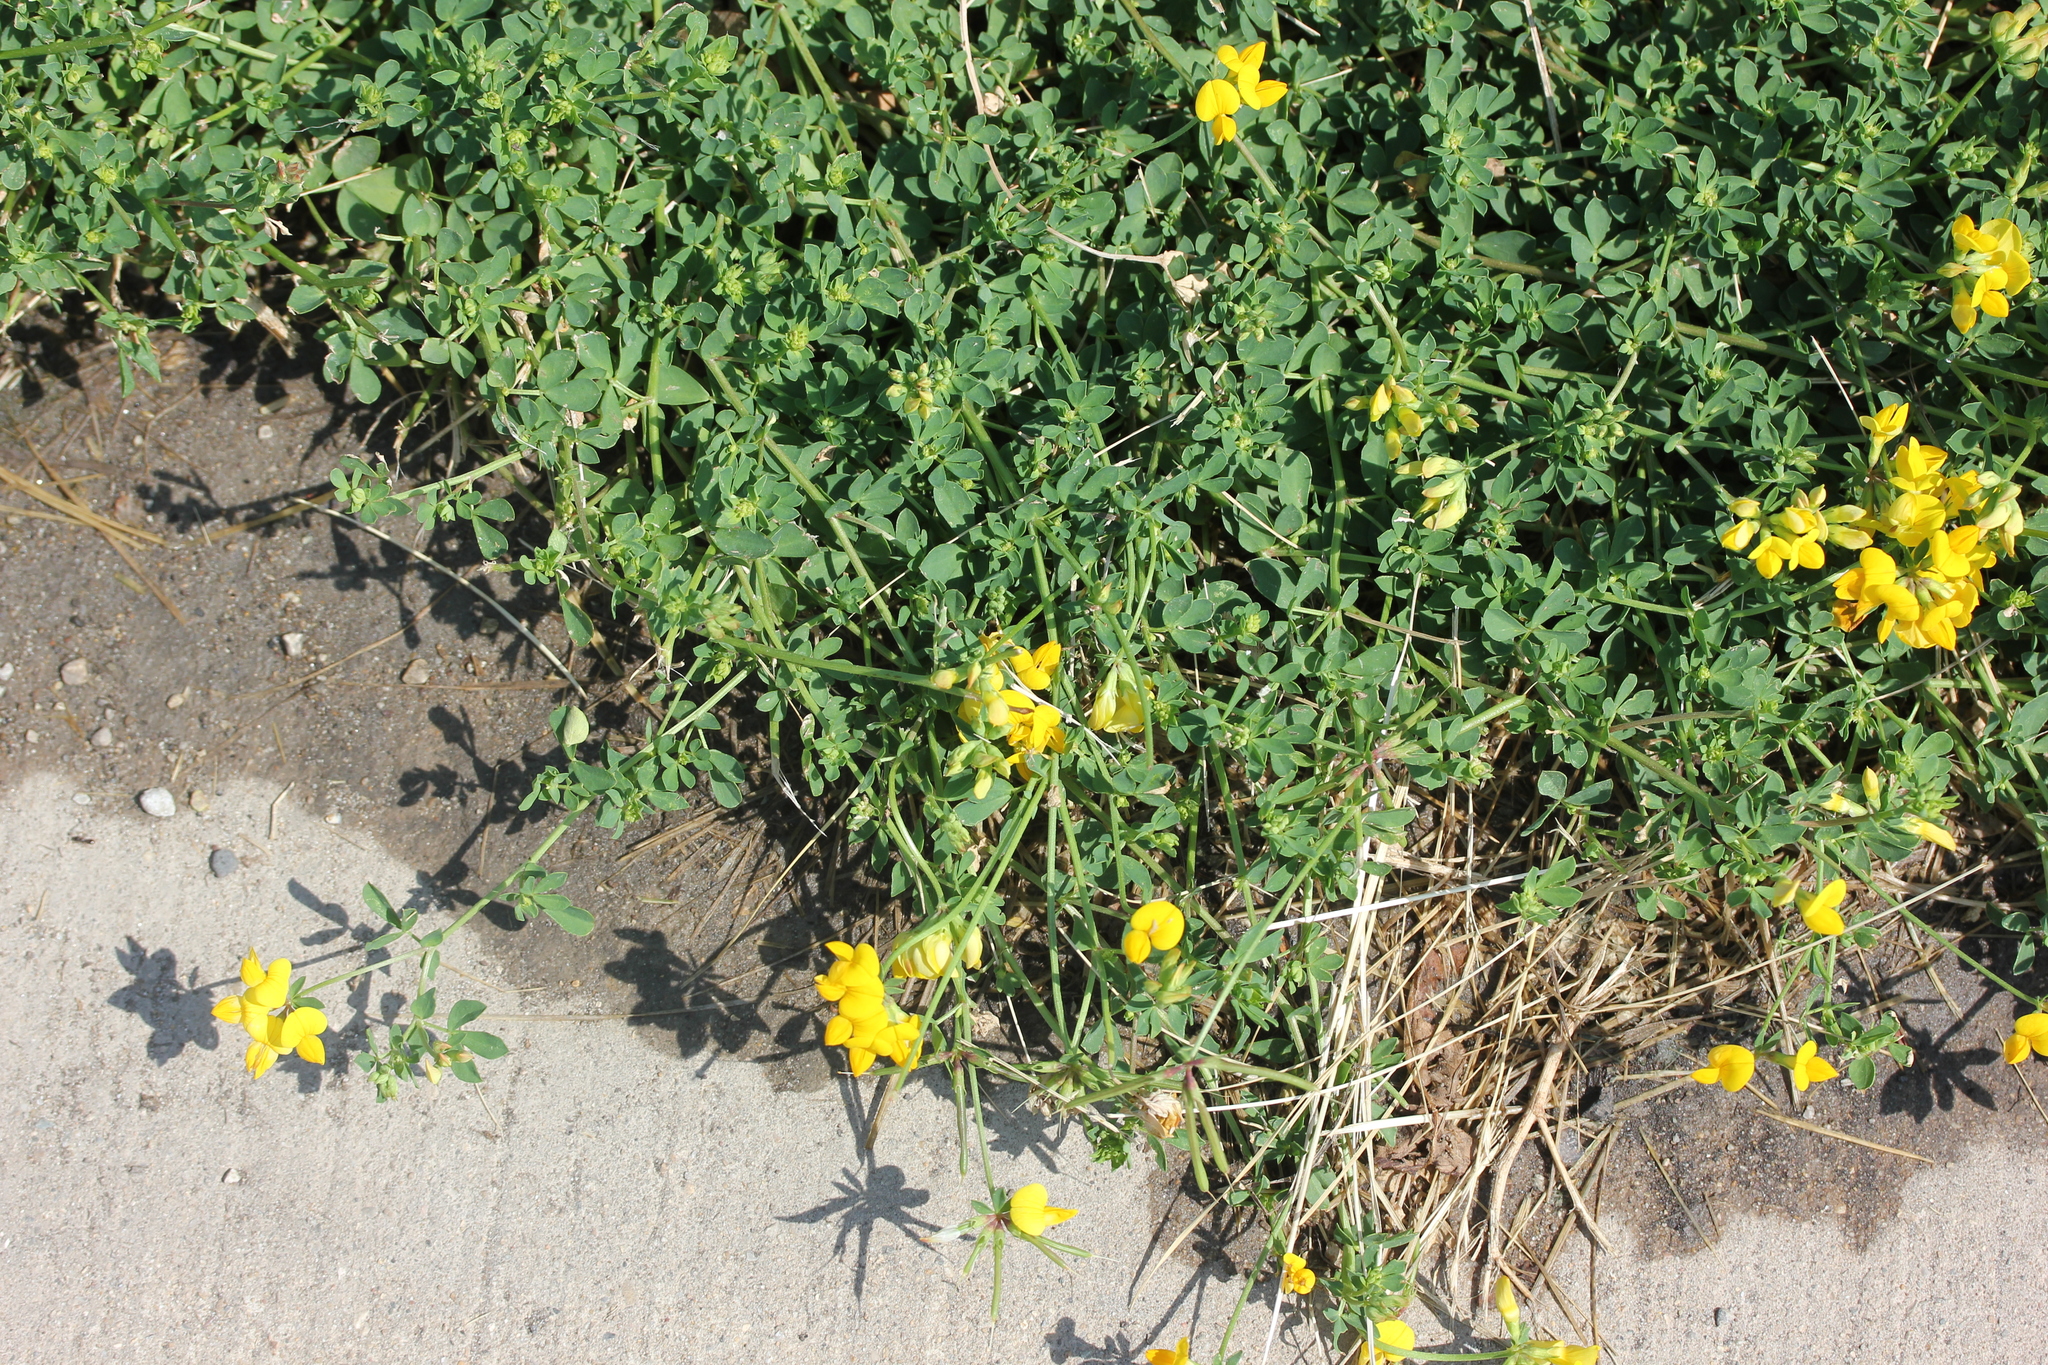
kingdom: Plantae
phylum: Tracheophyta
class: Magnoliopsida
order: Fabales
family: Fabaceae
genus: Lotus
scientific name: Lotus corniculatus
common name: Common bird's-foot-trefoil
